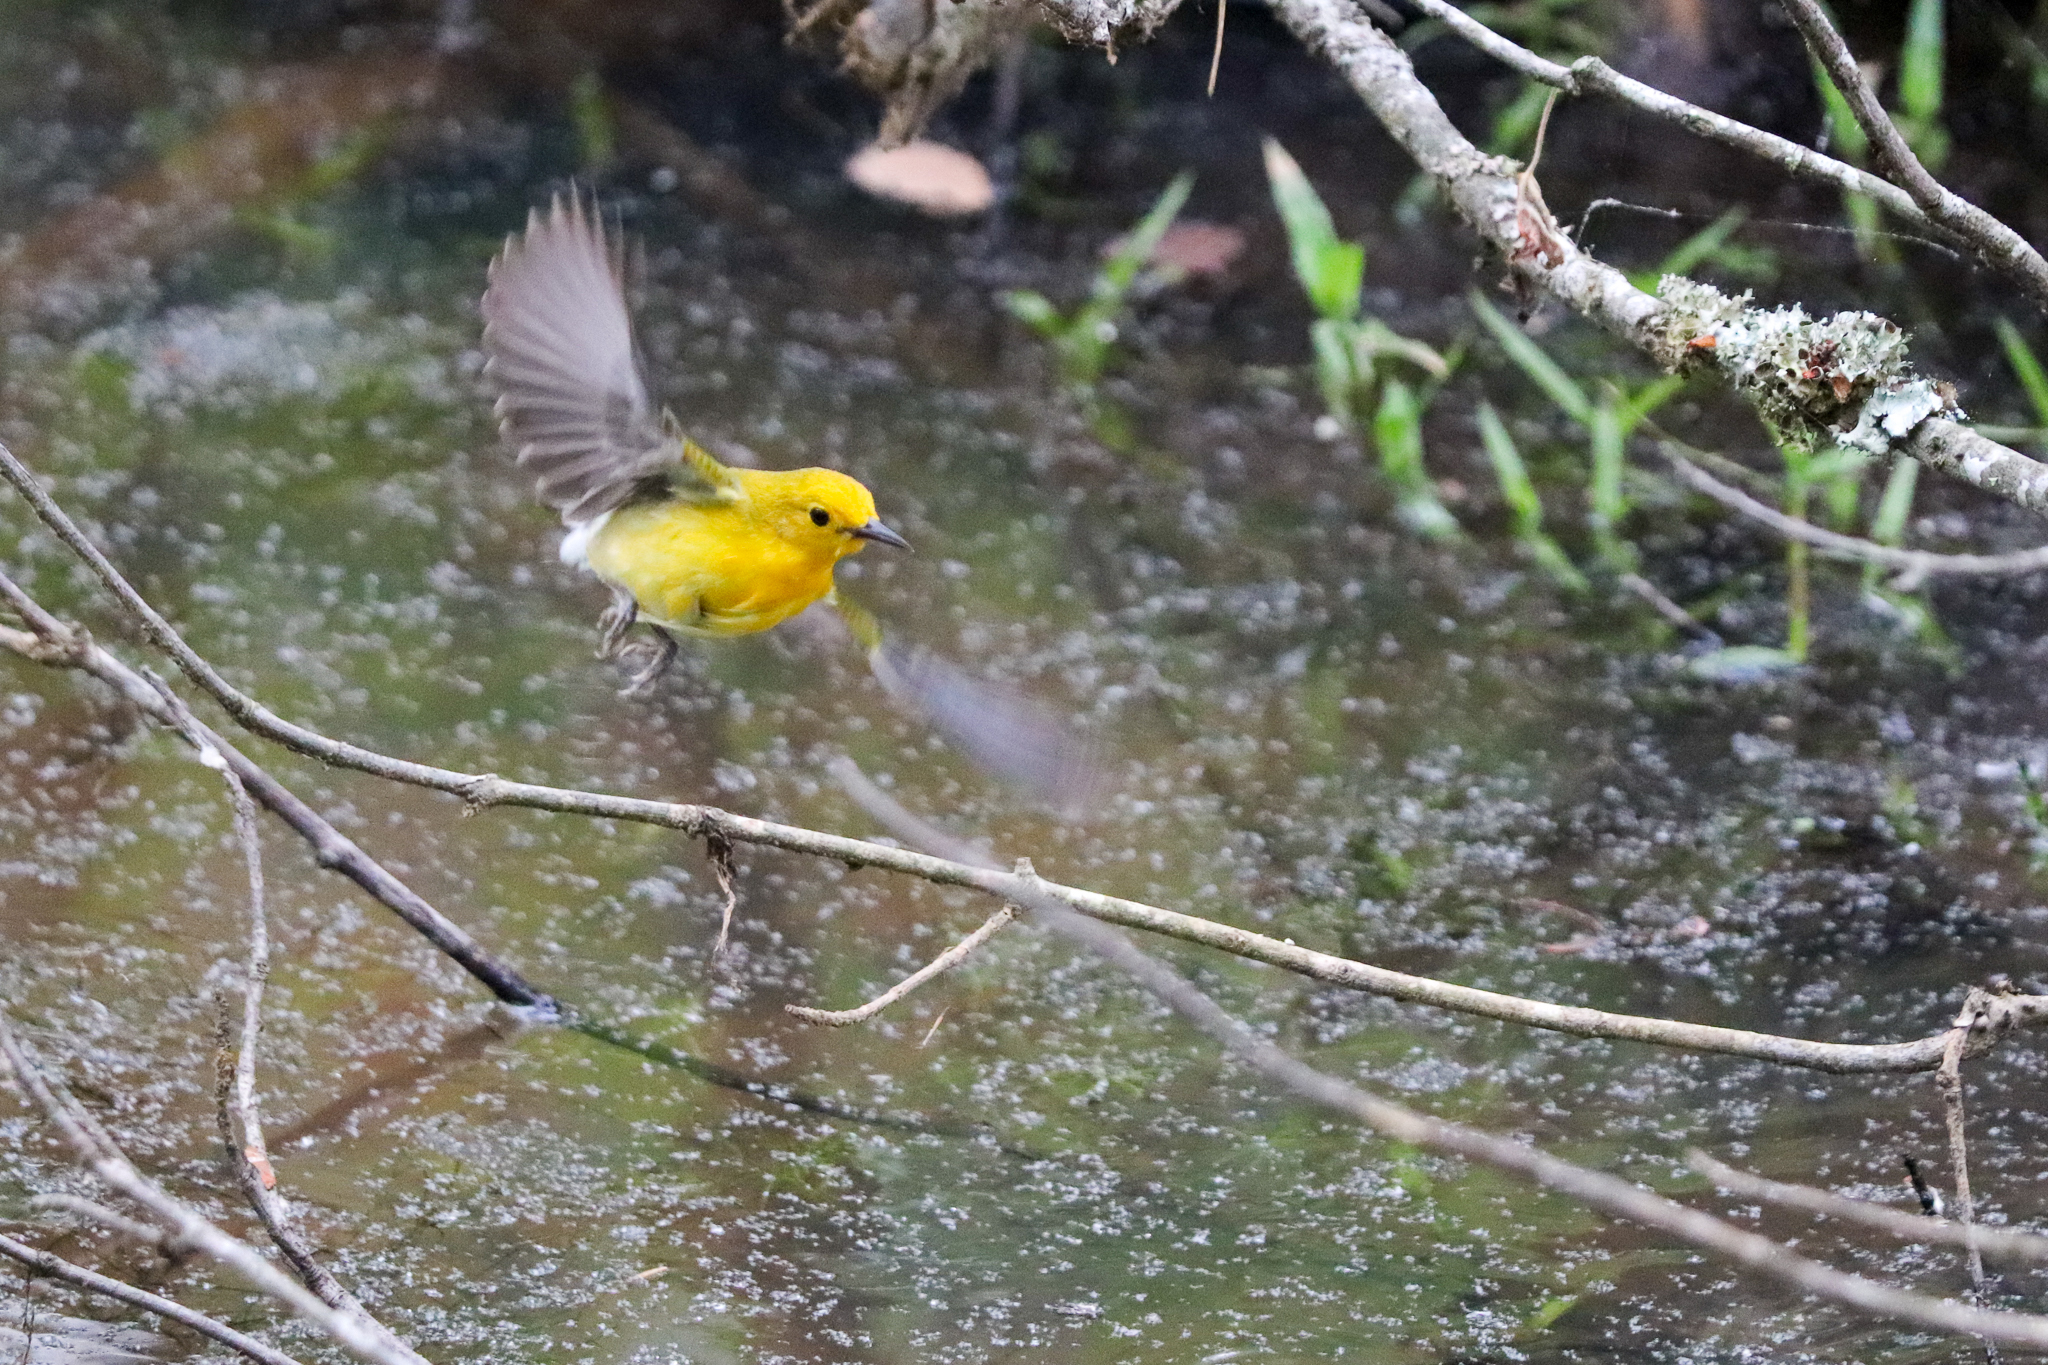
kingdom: Animalia
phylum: Chordata
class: Aves
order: Passeriformes
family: Parulidae
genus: Protonotaria
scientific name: Protonotaria citrea
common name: Prothonotary warbler
